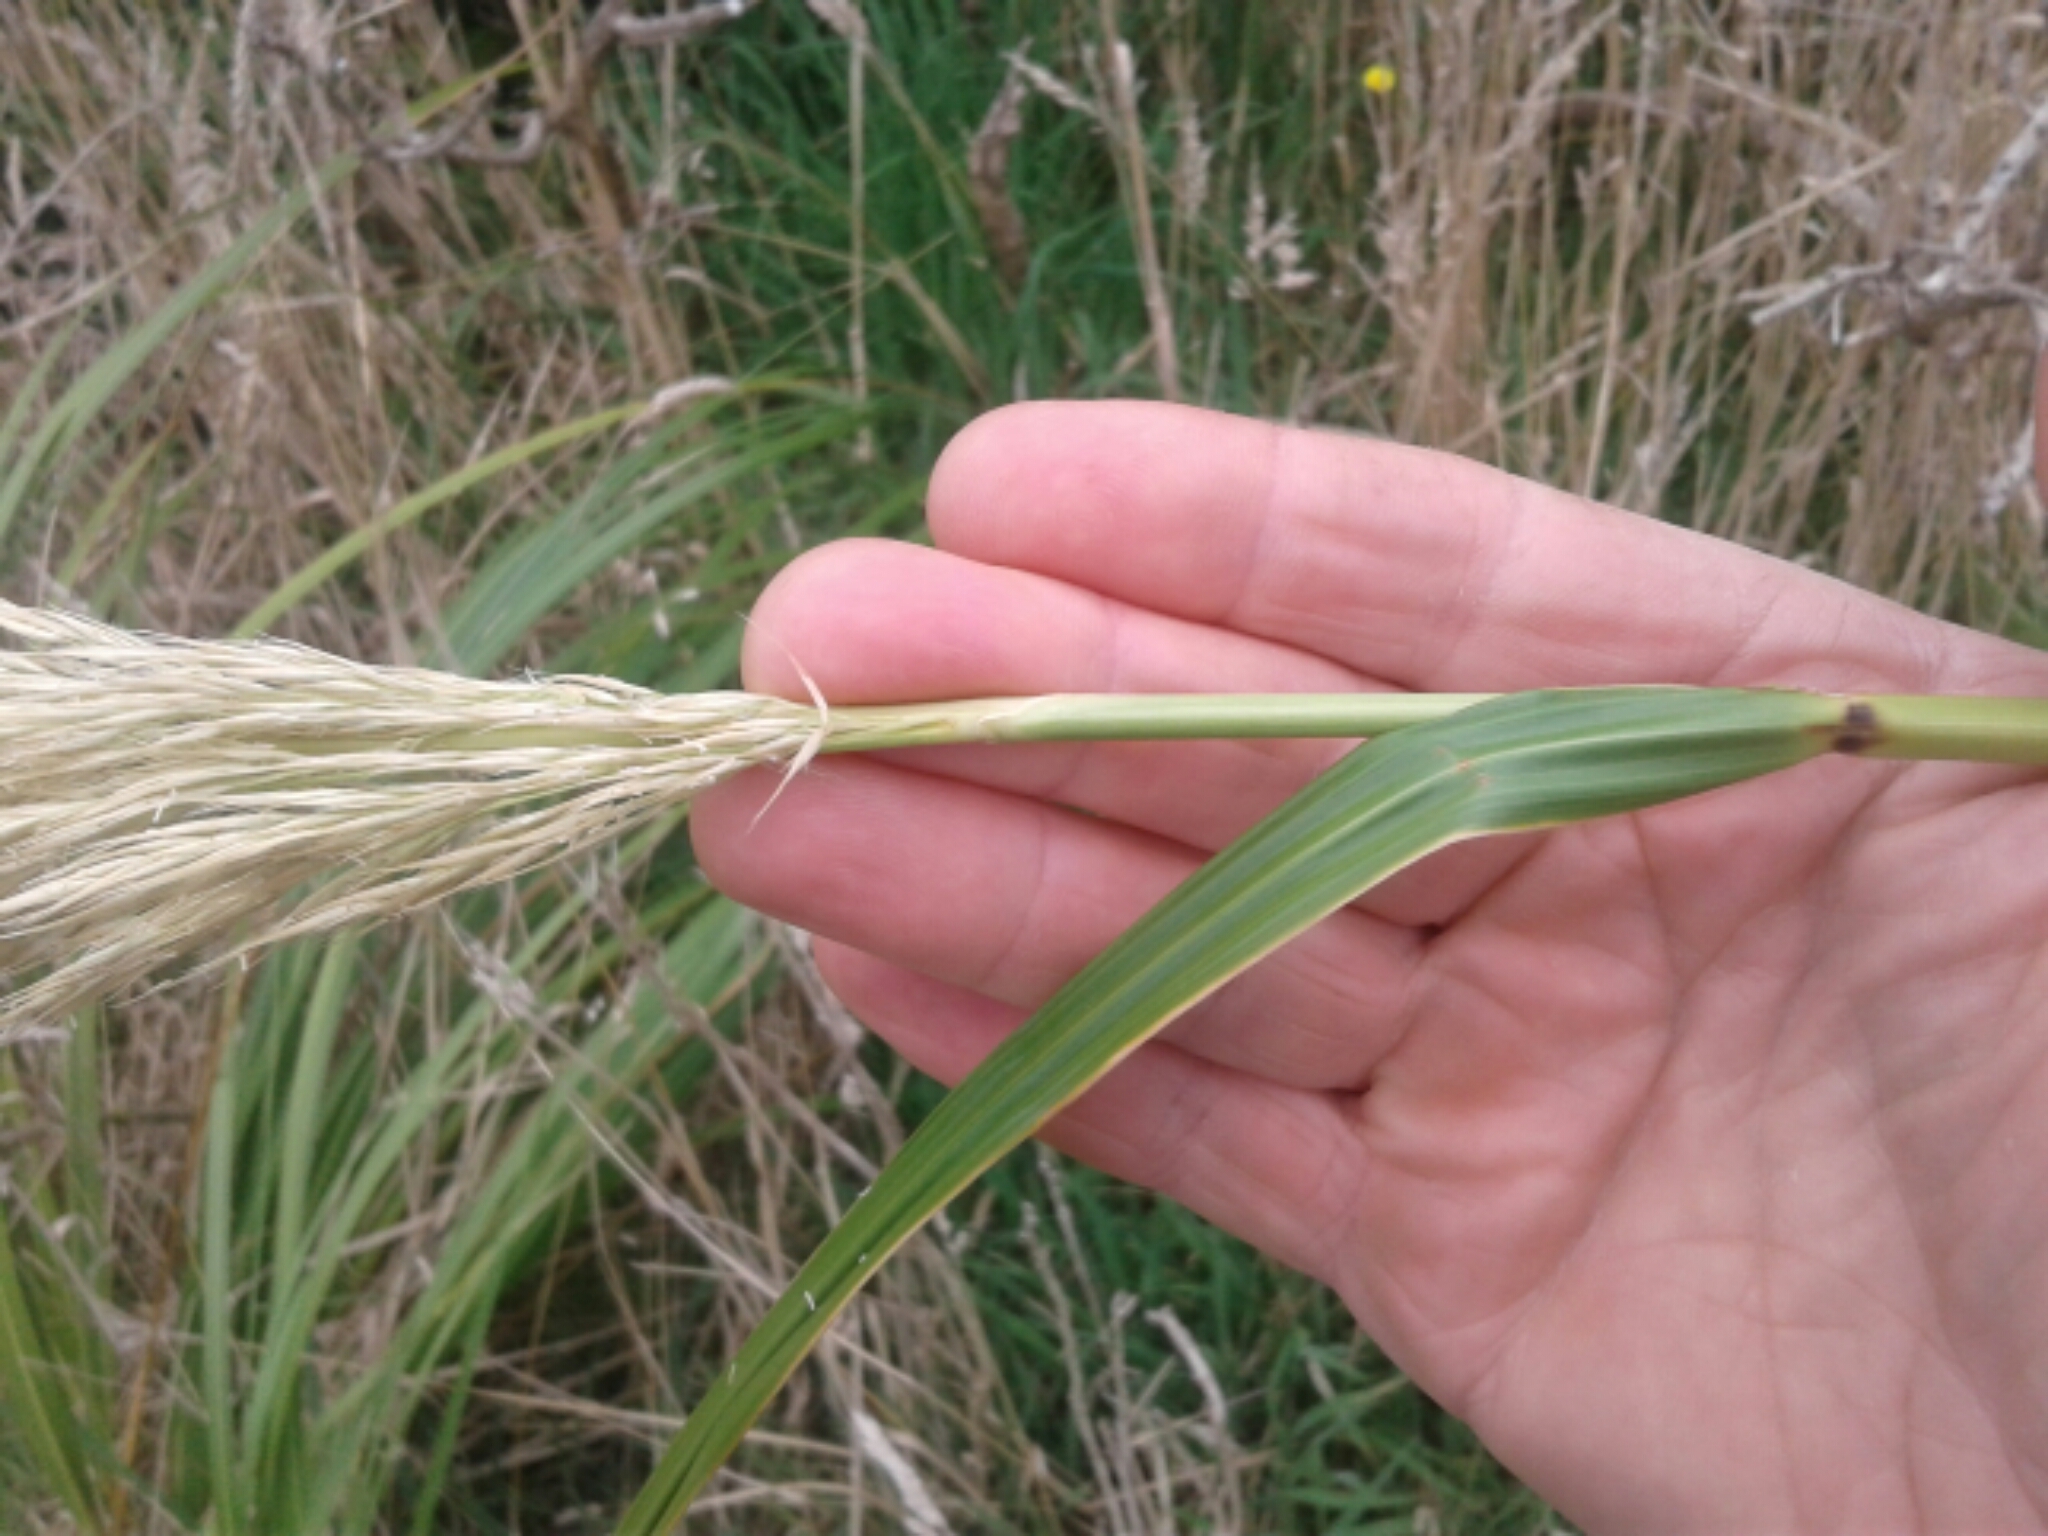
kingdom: Plantae
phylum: Tracheophyta
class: Liliopsida
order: Poales
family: Poaceae
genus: Austroderia
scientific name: Austroderia richardii
